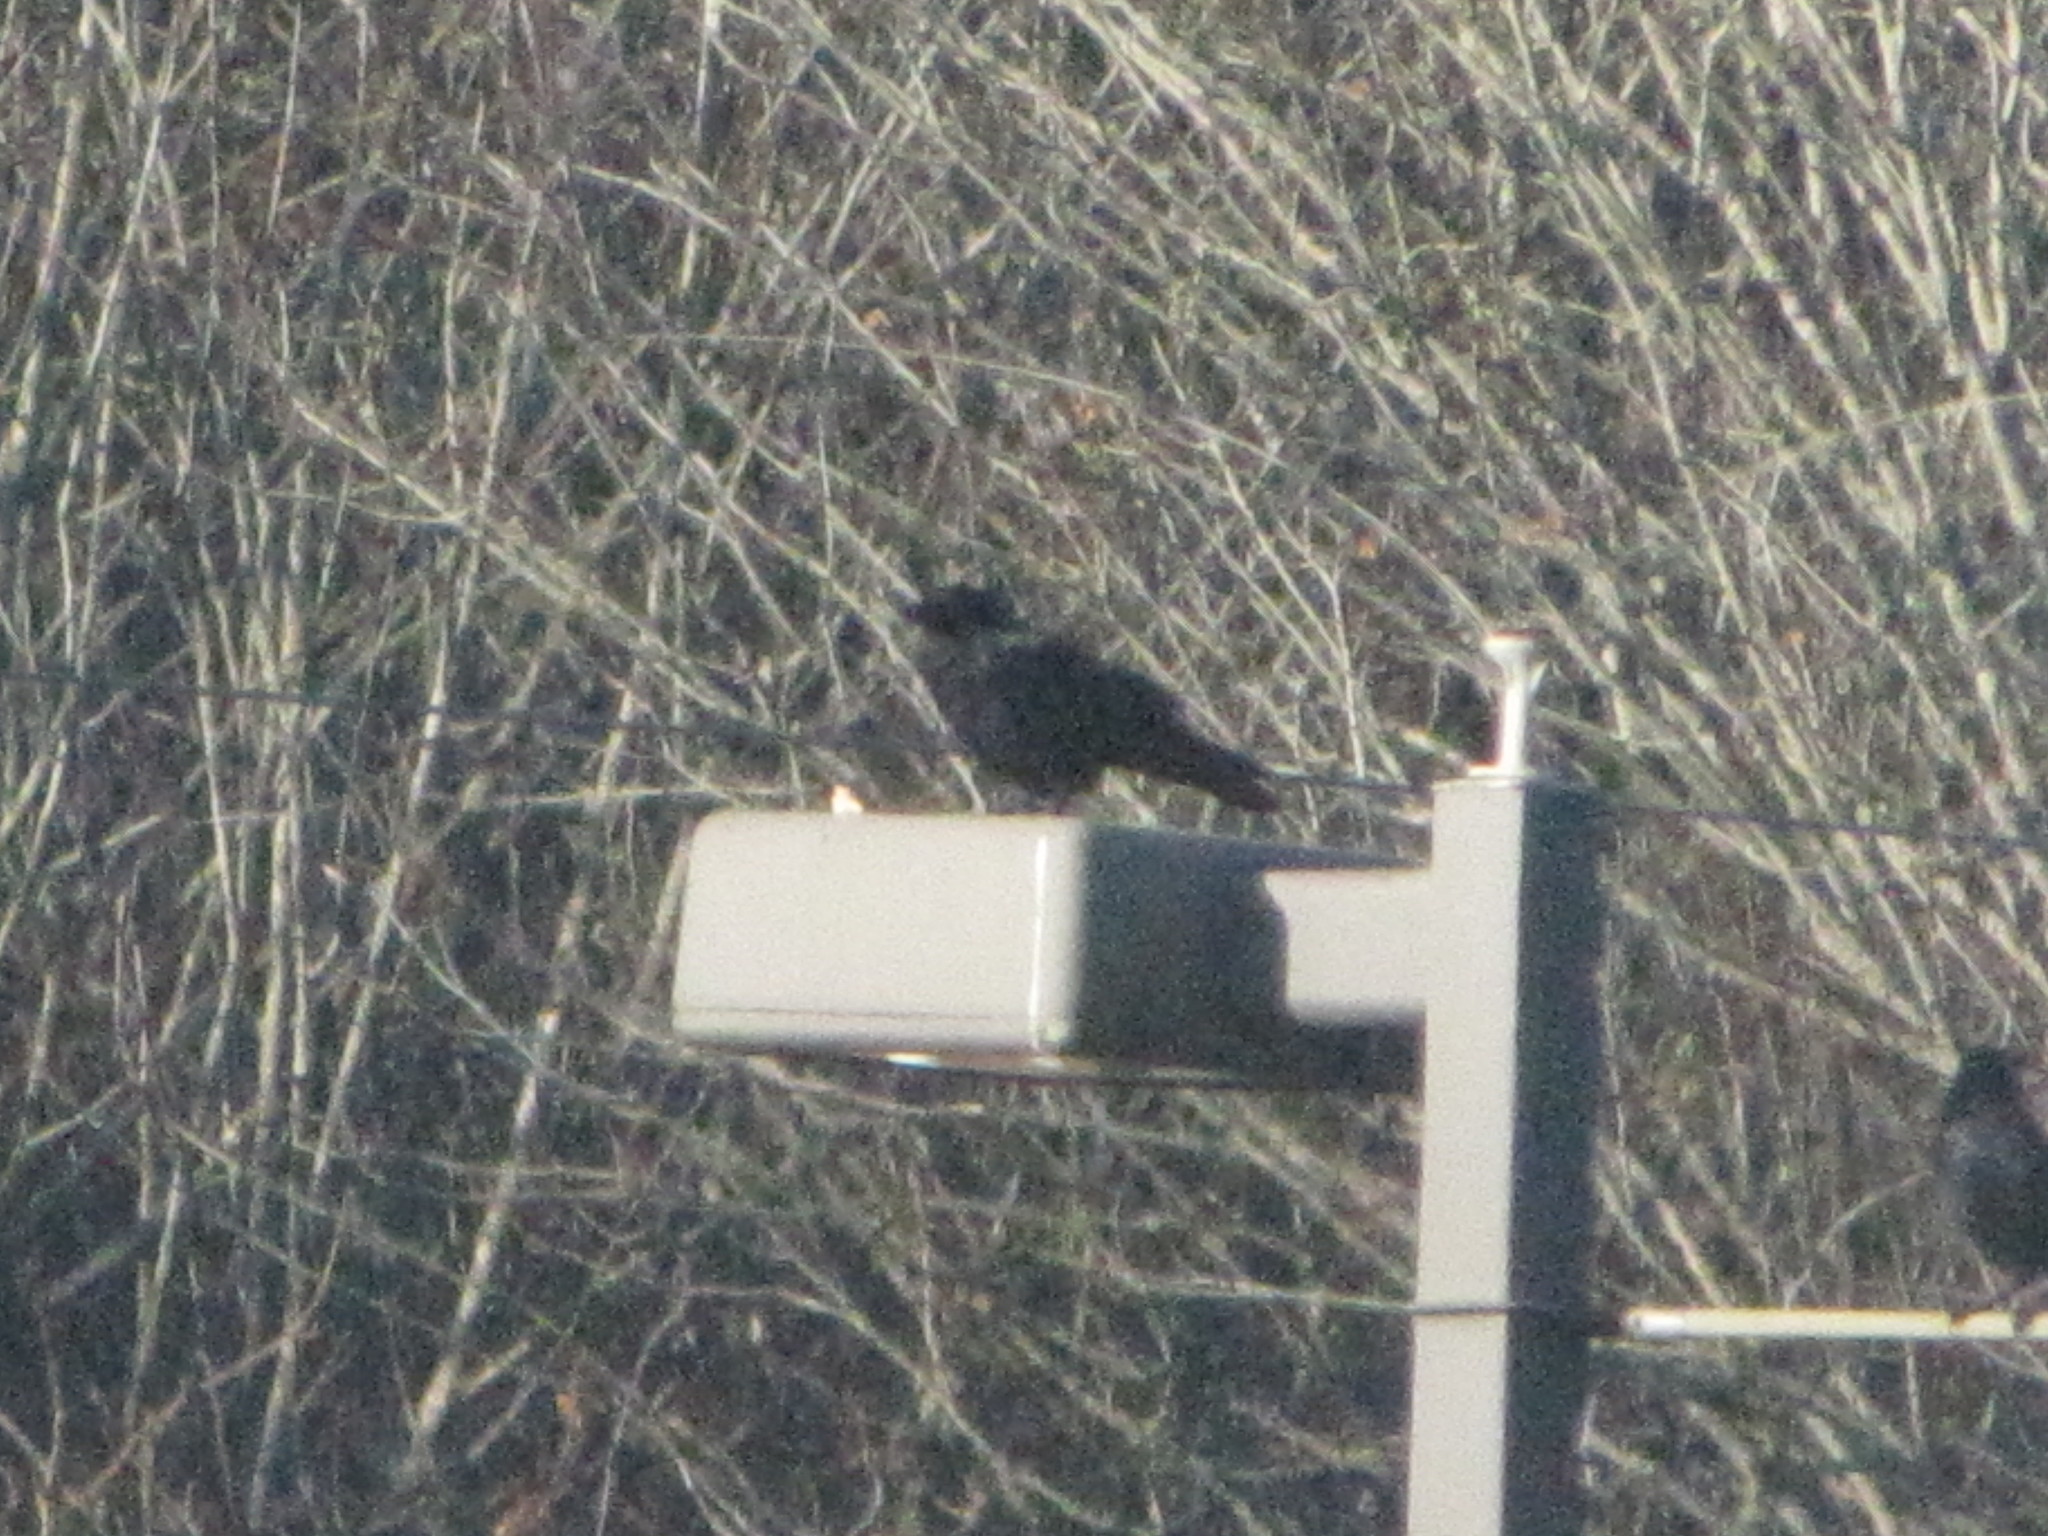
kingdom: Animalia
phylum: Chordata
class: Aves
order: Passeriformes
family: Corvidae
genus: Corvus
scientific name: Corvus brachyrhynchos
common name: American crow
